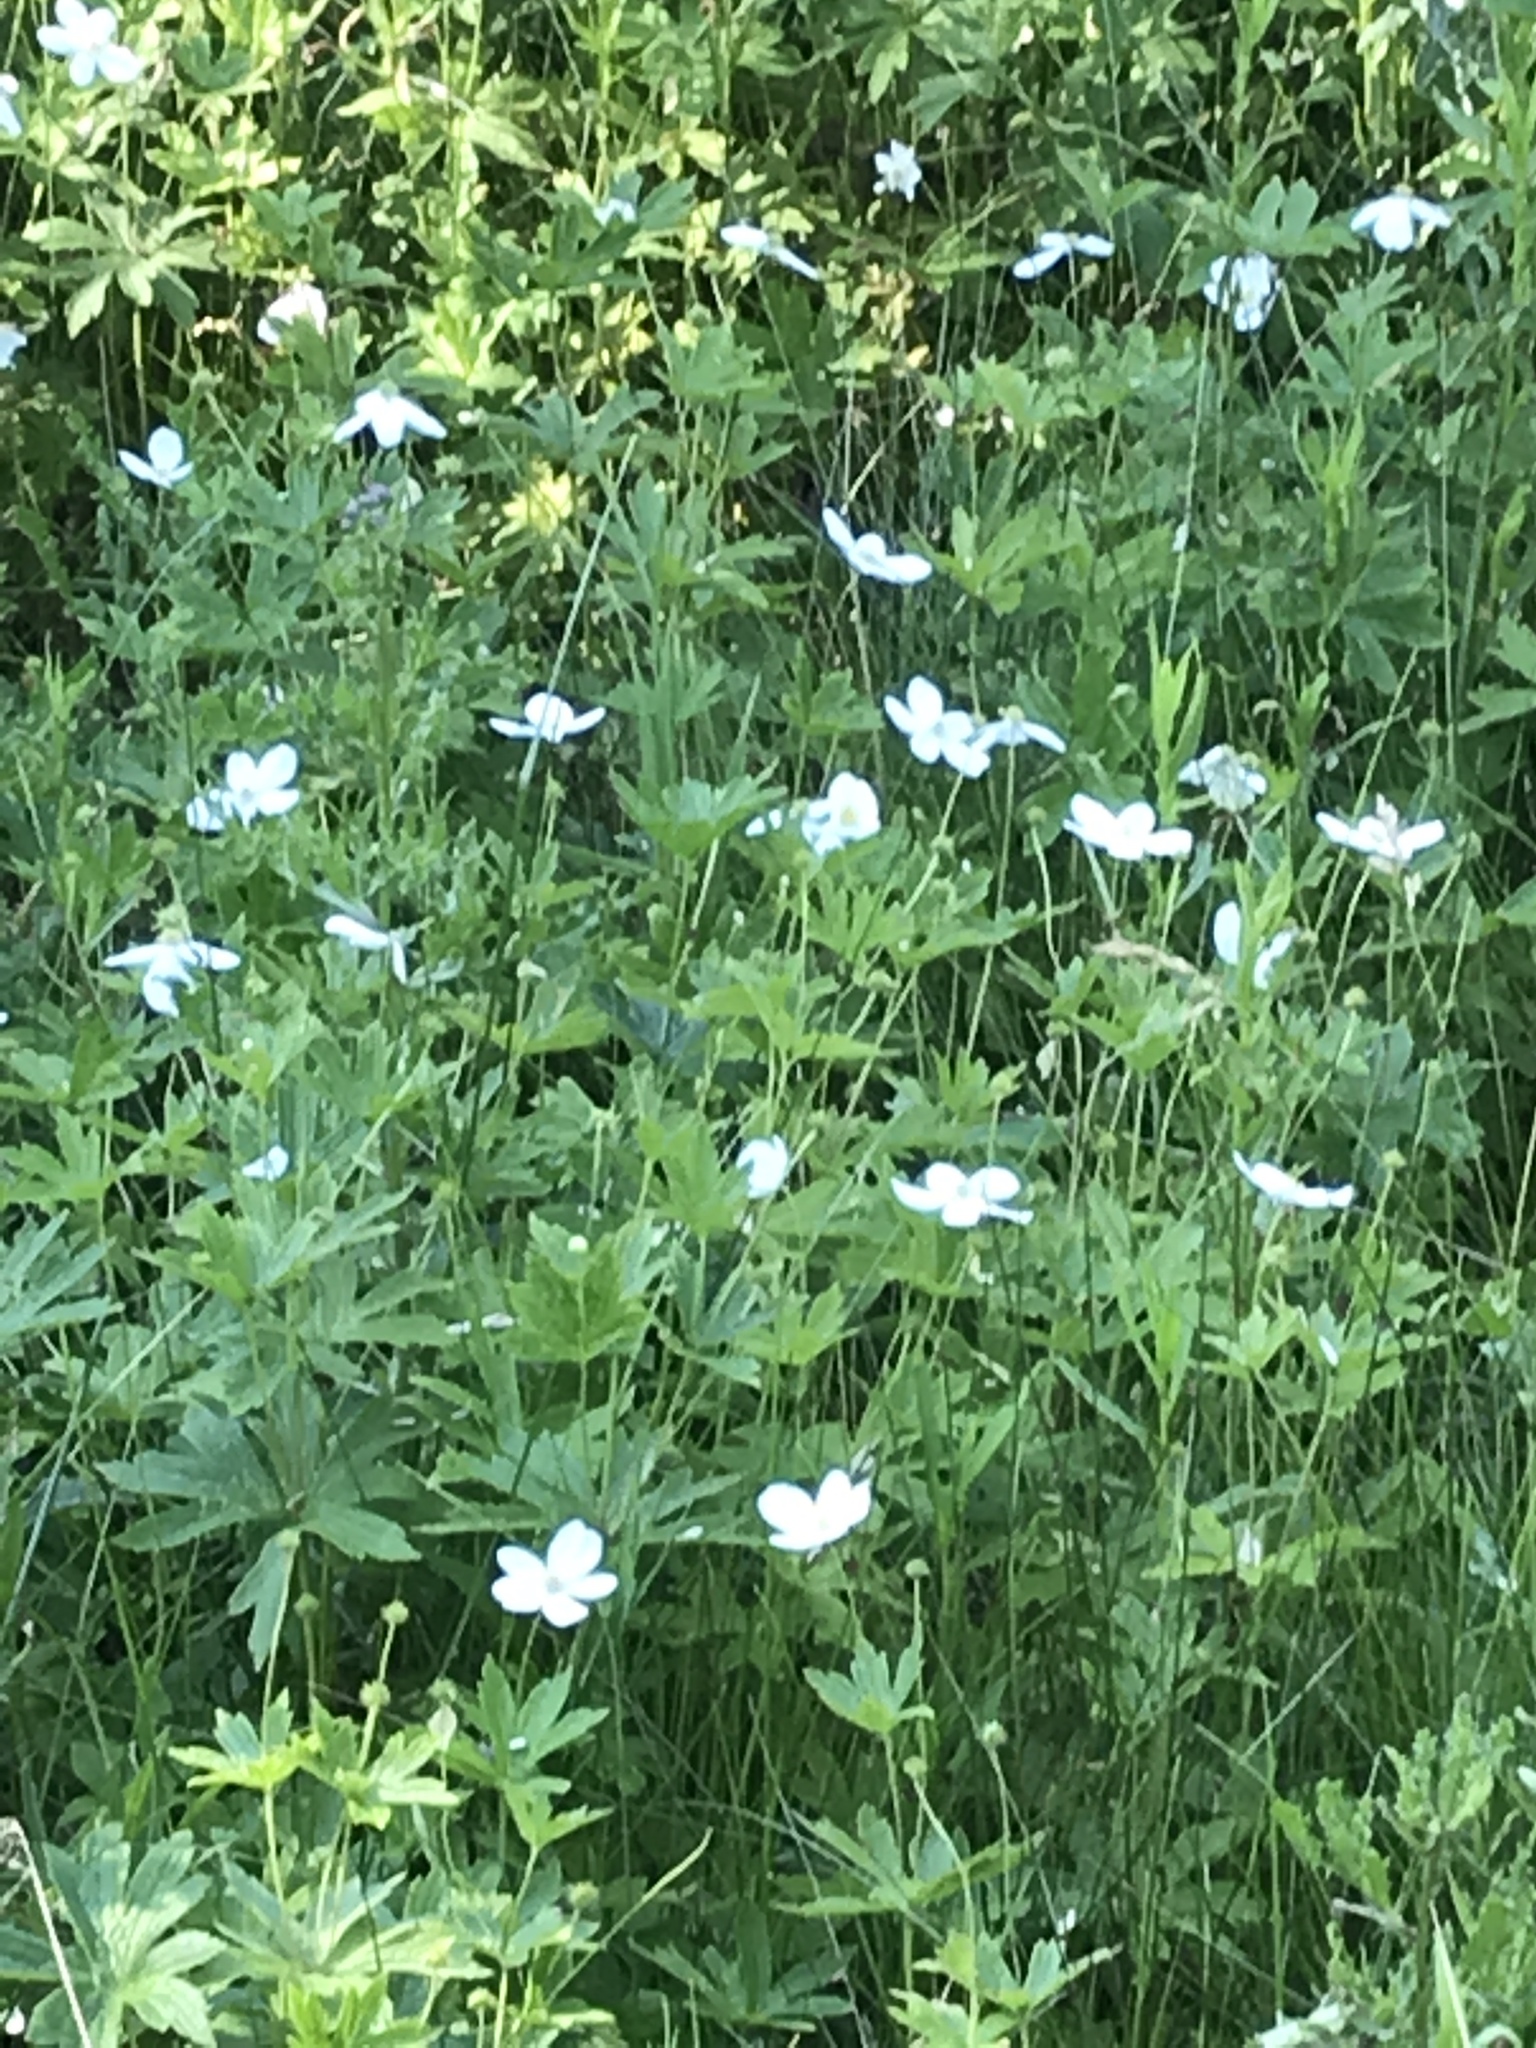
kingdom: Plantae
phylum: Tracheophyta
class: Magnoliopsida
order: Ranunculales
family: Ranunculaceae
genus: Anemonastrum
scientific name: Anemonastrum canadense
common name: Canada anemone
